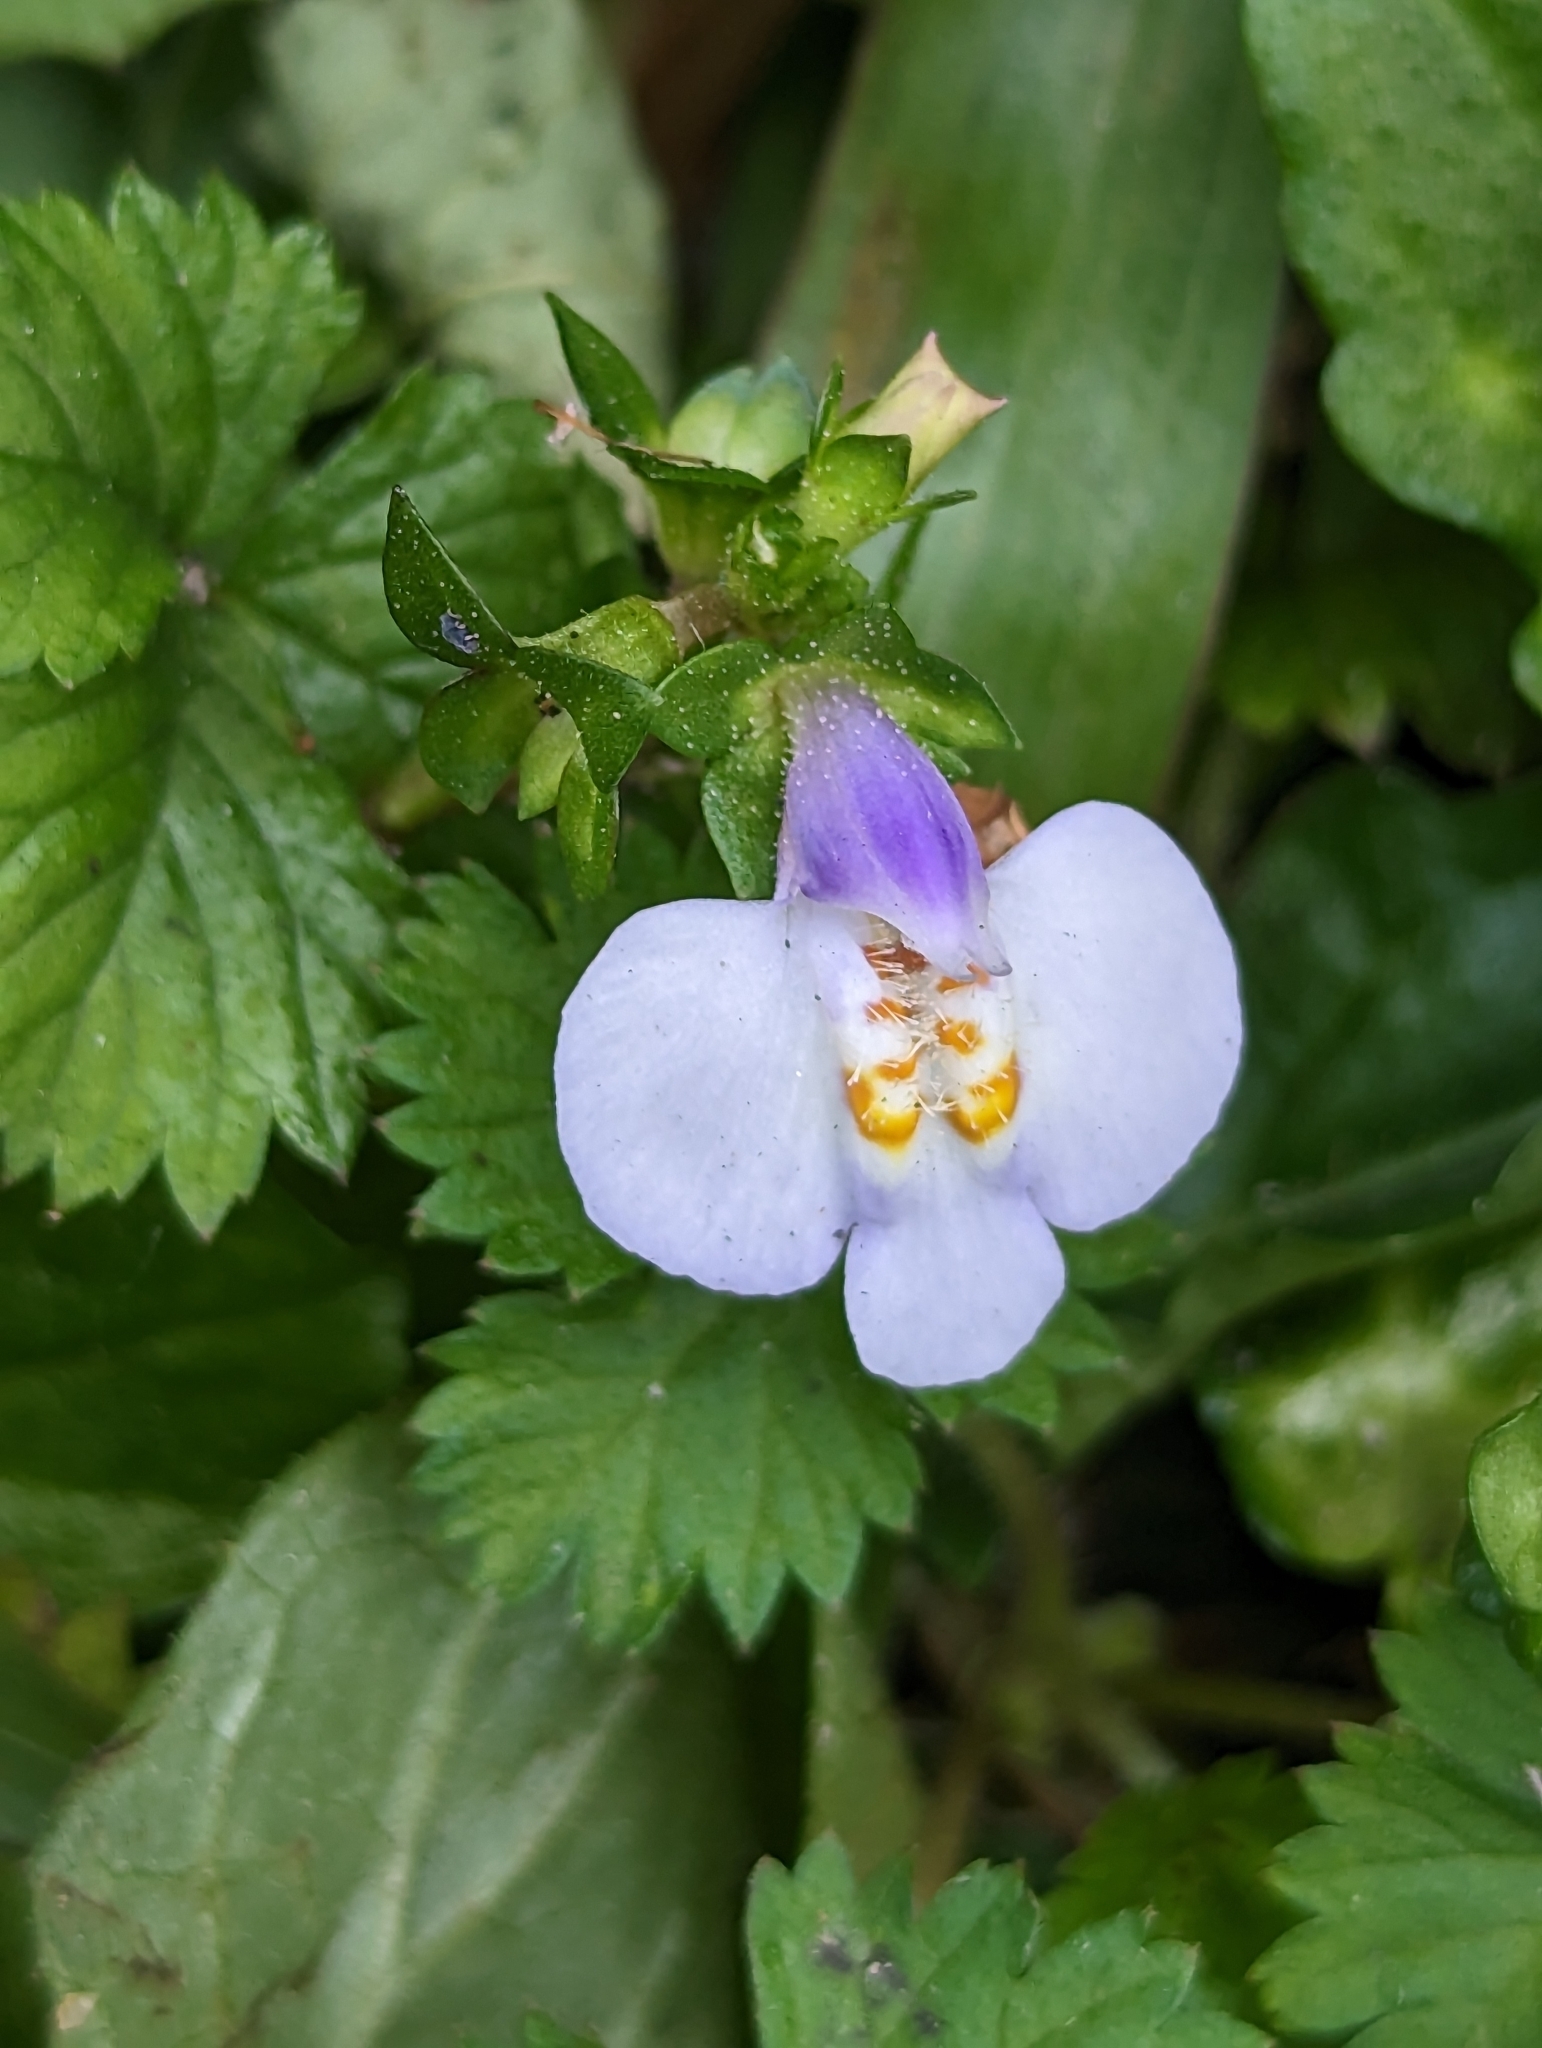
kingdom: Plantae
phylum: Tracheophyta
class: Magnoliopsida
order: Lamiales
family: Mazaceae
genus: Mazus
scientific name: Mazus fauriei
